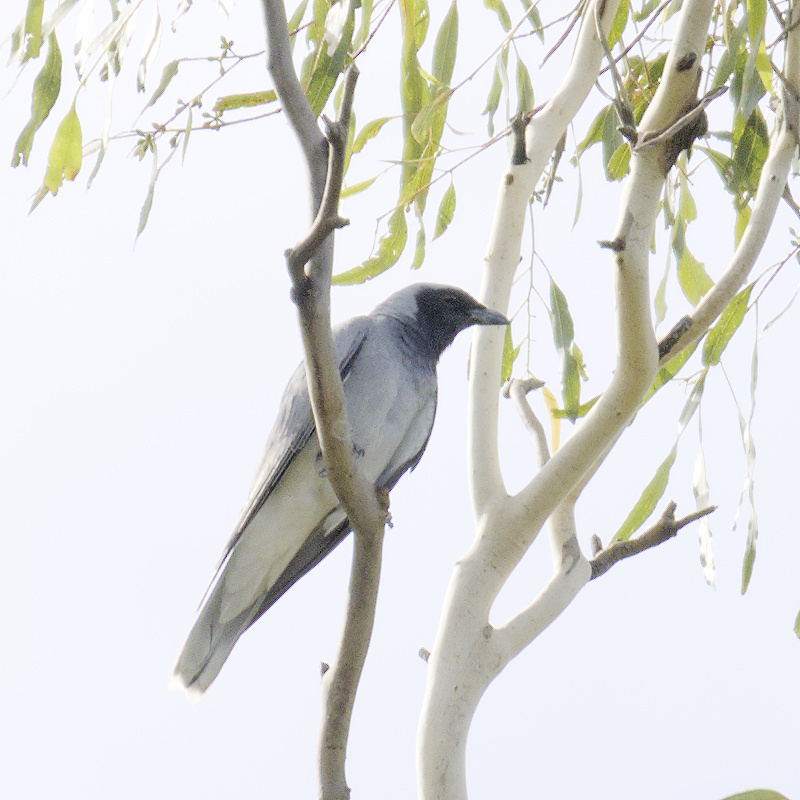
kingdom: Animalia
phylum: Chordata
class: Aves
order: Passeriformes
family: Campephagidae
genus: Coracina
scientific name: Coracina novaehollandiae
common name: Black-faced cuckooshrike
